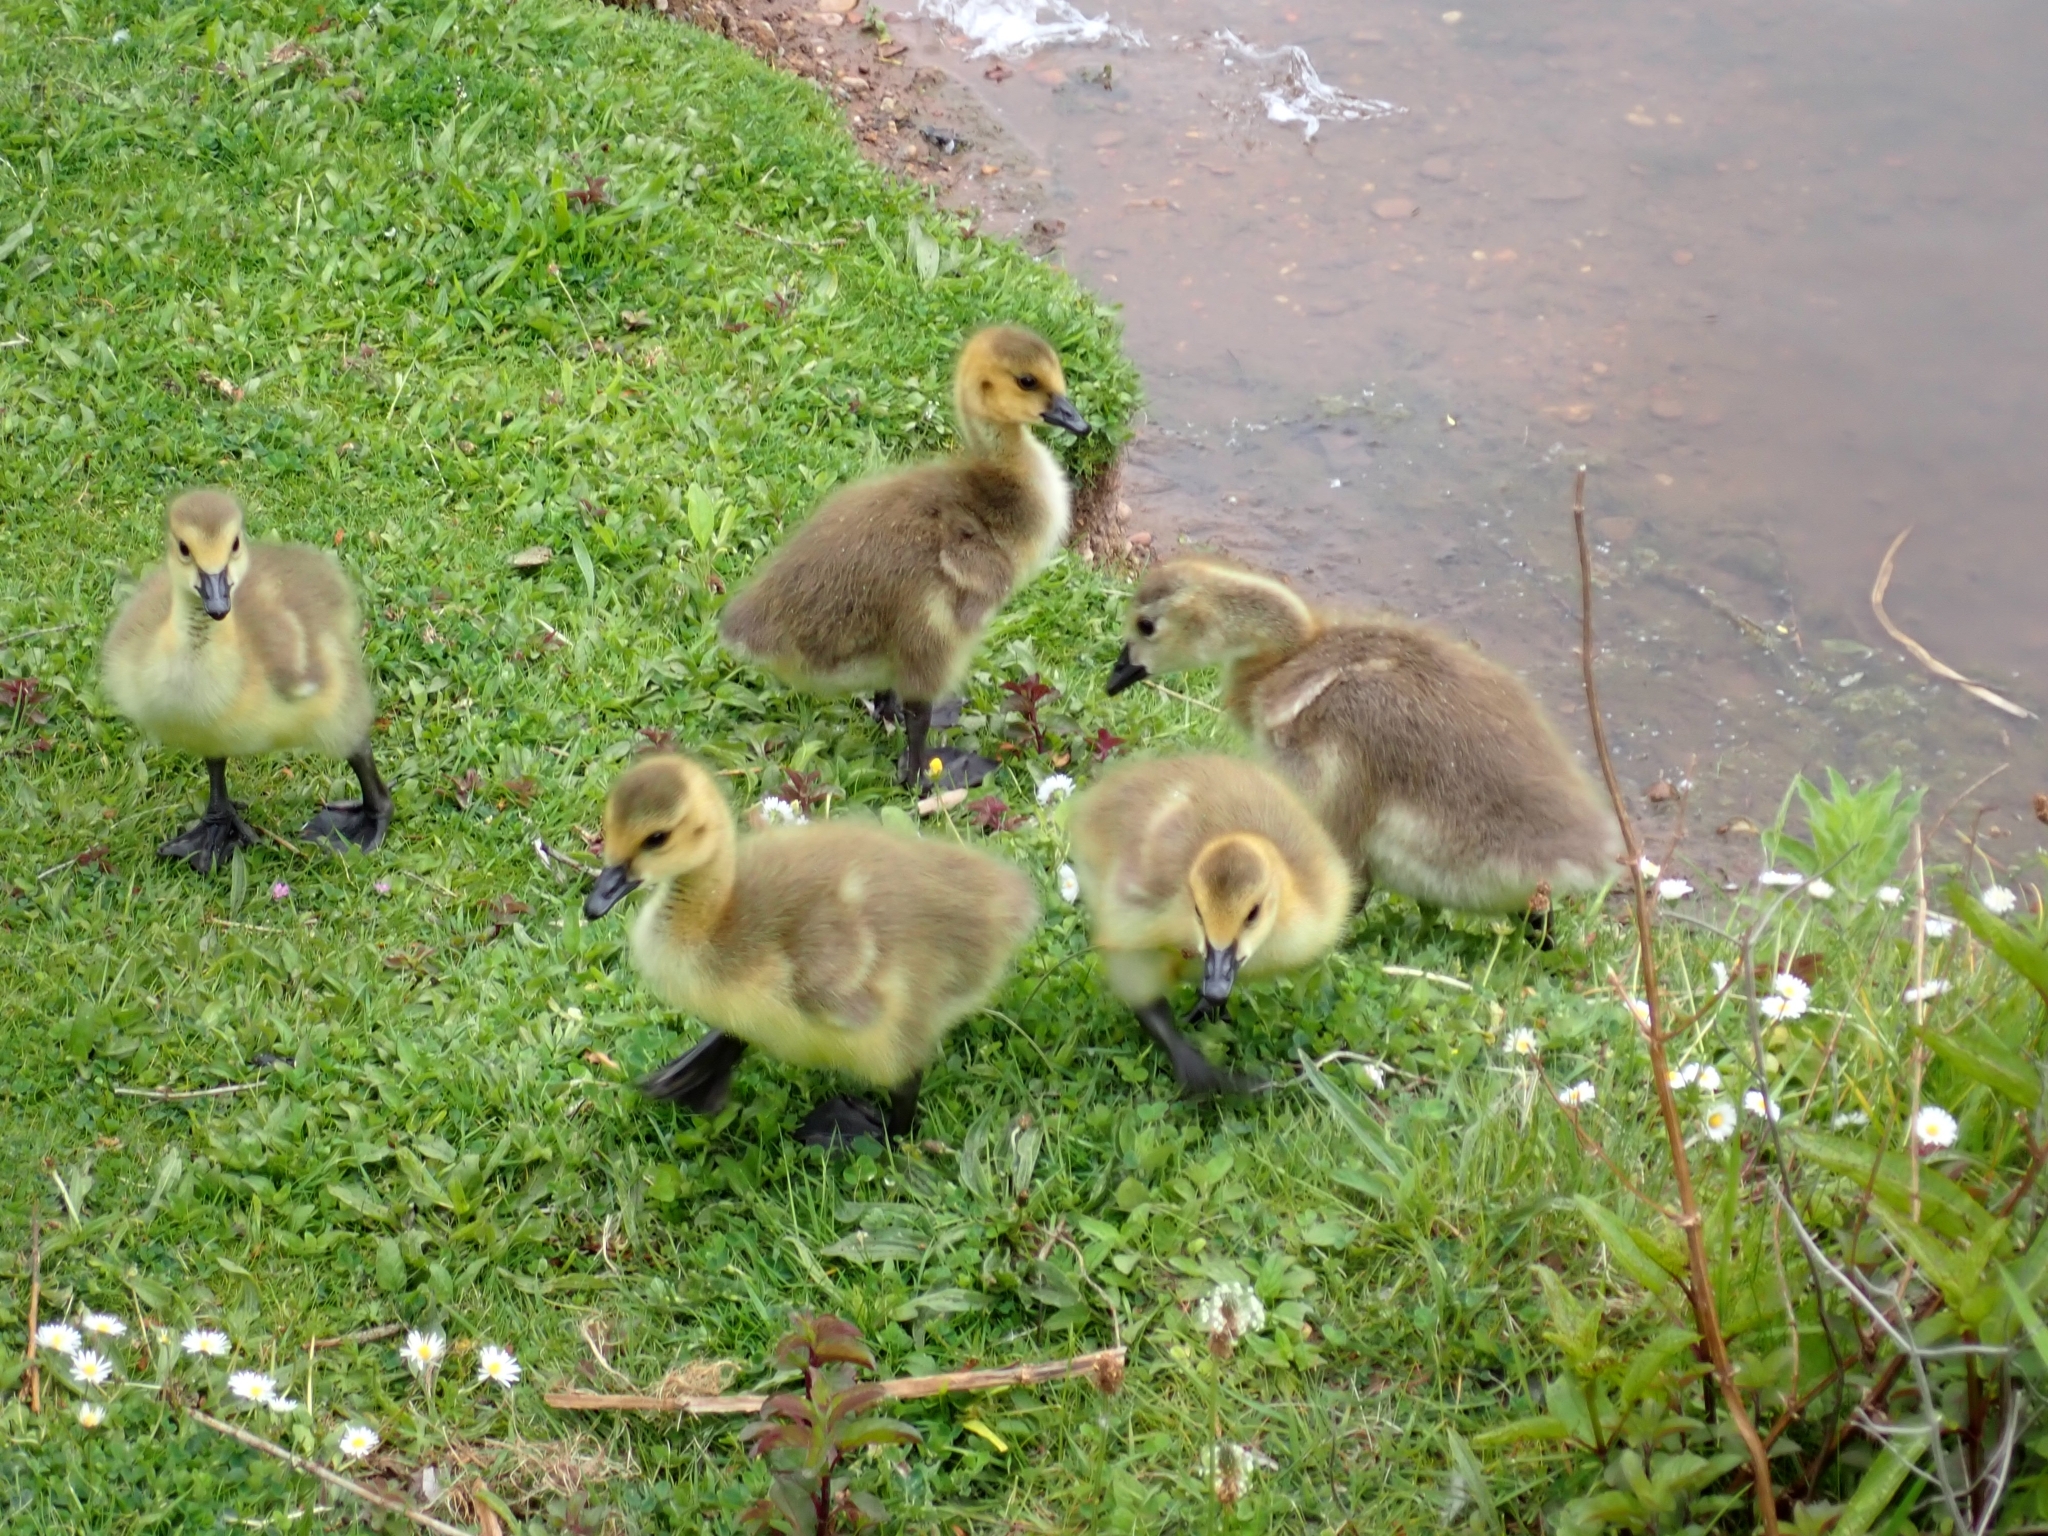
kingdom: Animalia
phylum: Chordata
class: Aves
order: Anseriformes
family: Anatidae
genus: Branta
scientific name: Branta canadensis
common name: Canada goose
